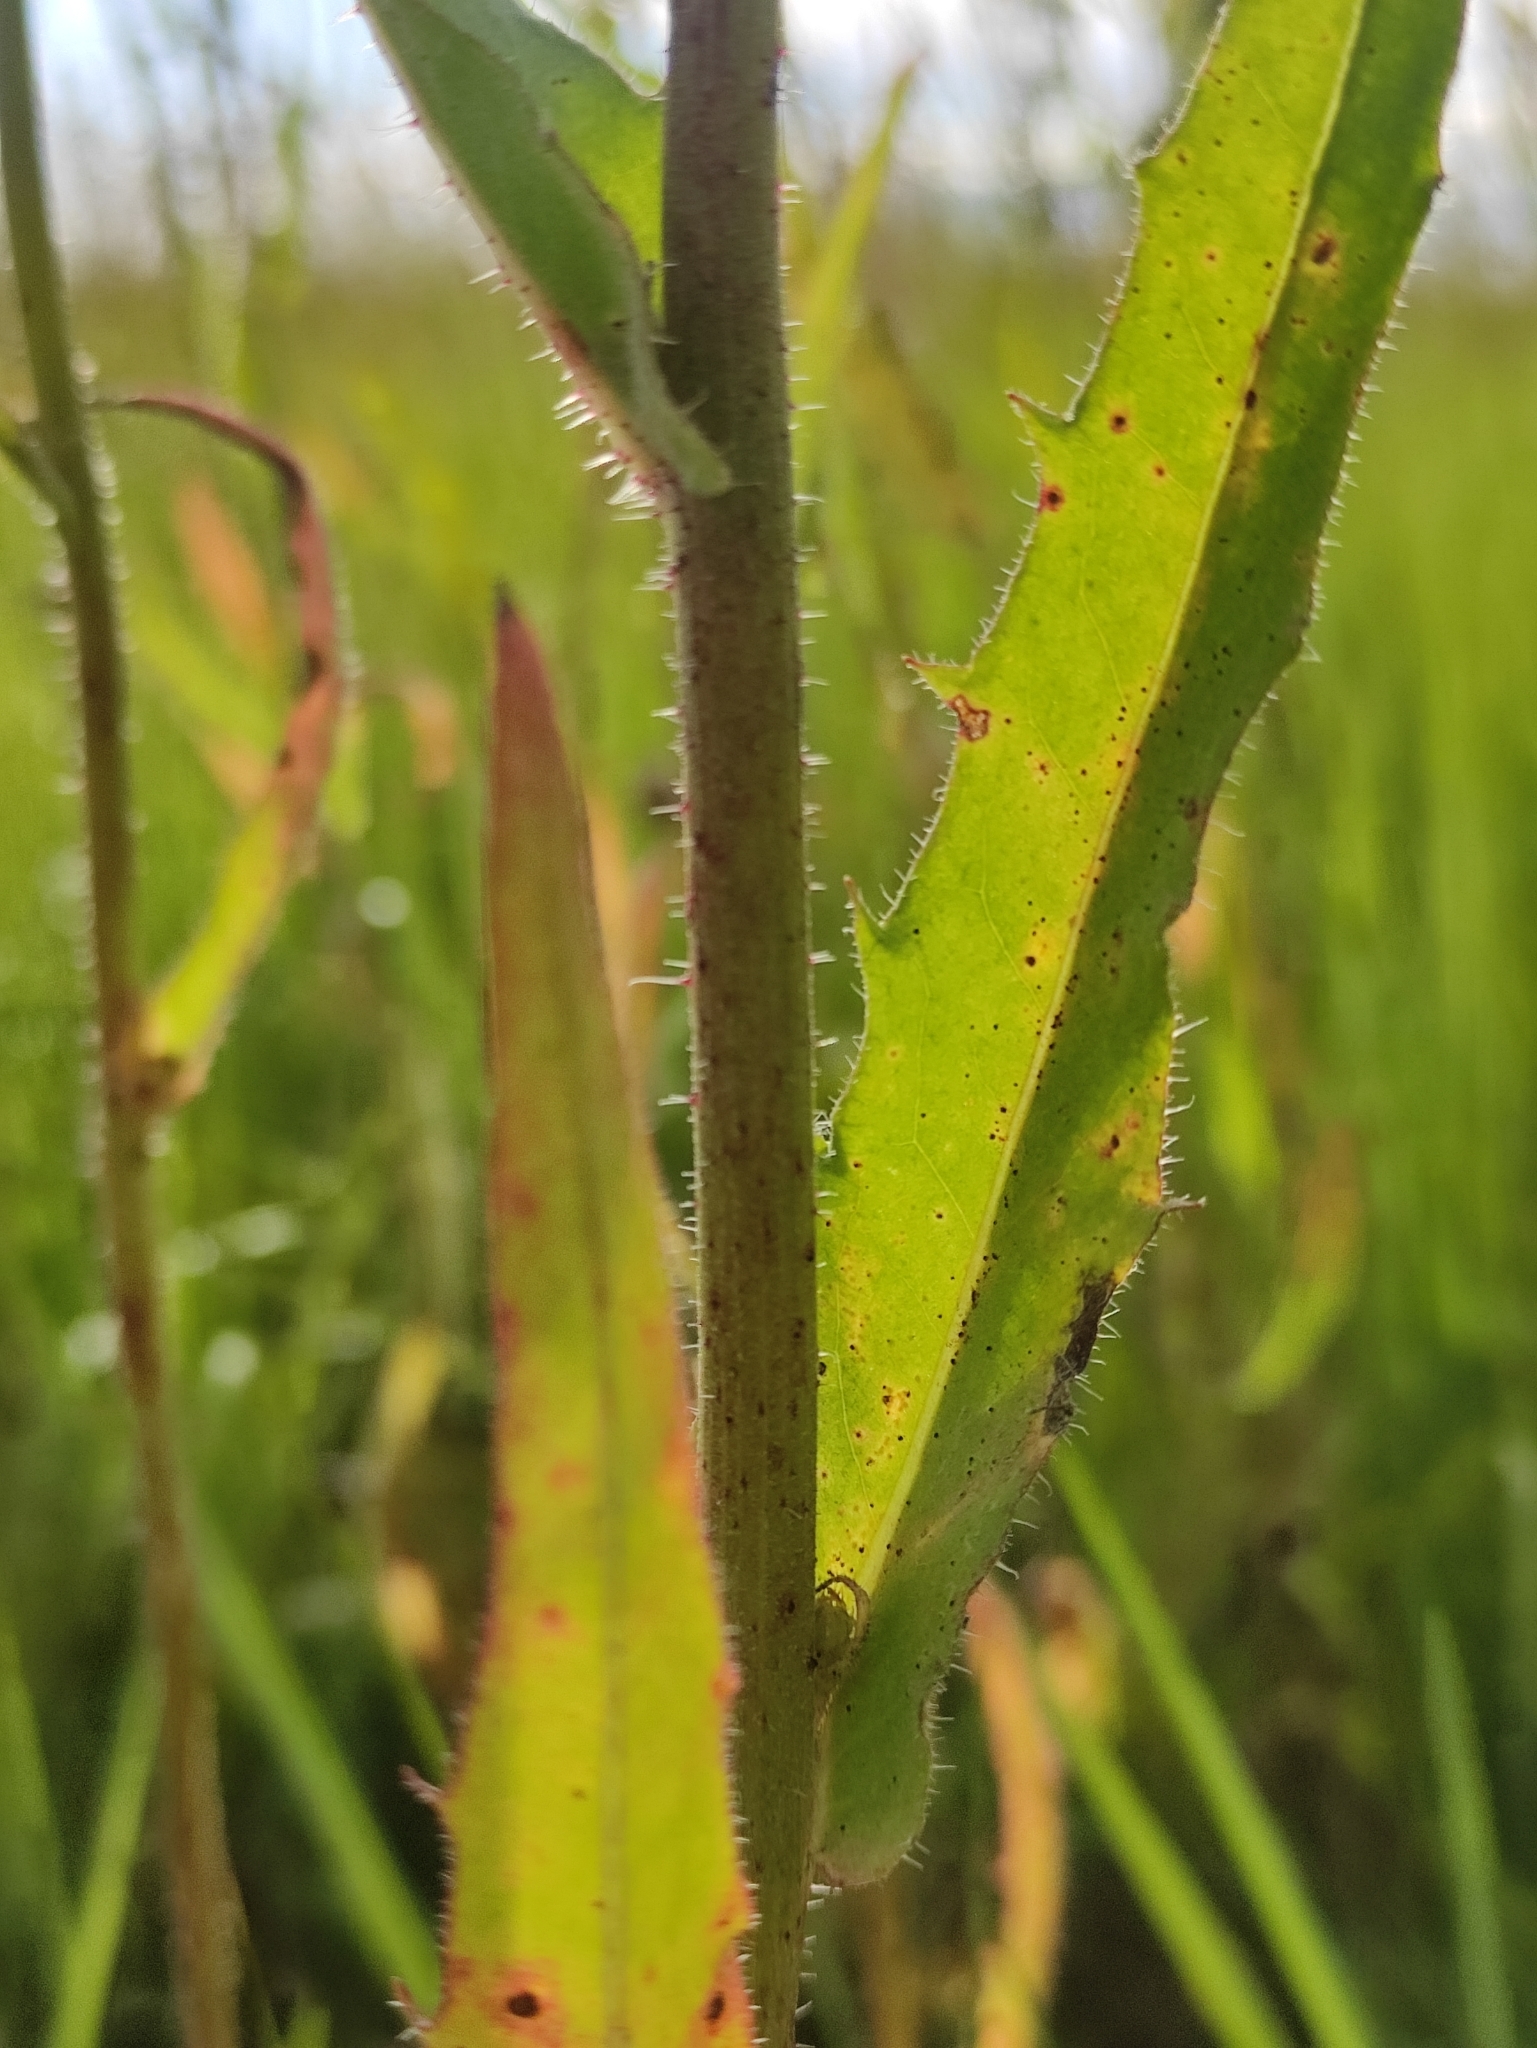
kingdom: Plantae
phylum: Tracheophyta
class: Magnoliopsida
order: Asterales
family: Asteraceae
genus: Picris
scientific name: Picris hieracioides
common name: Hawkweed oxtongue
